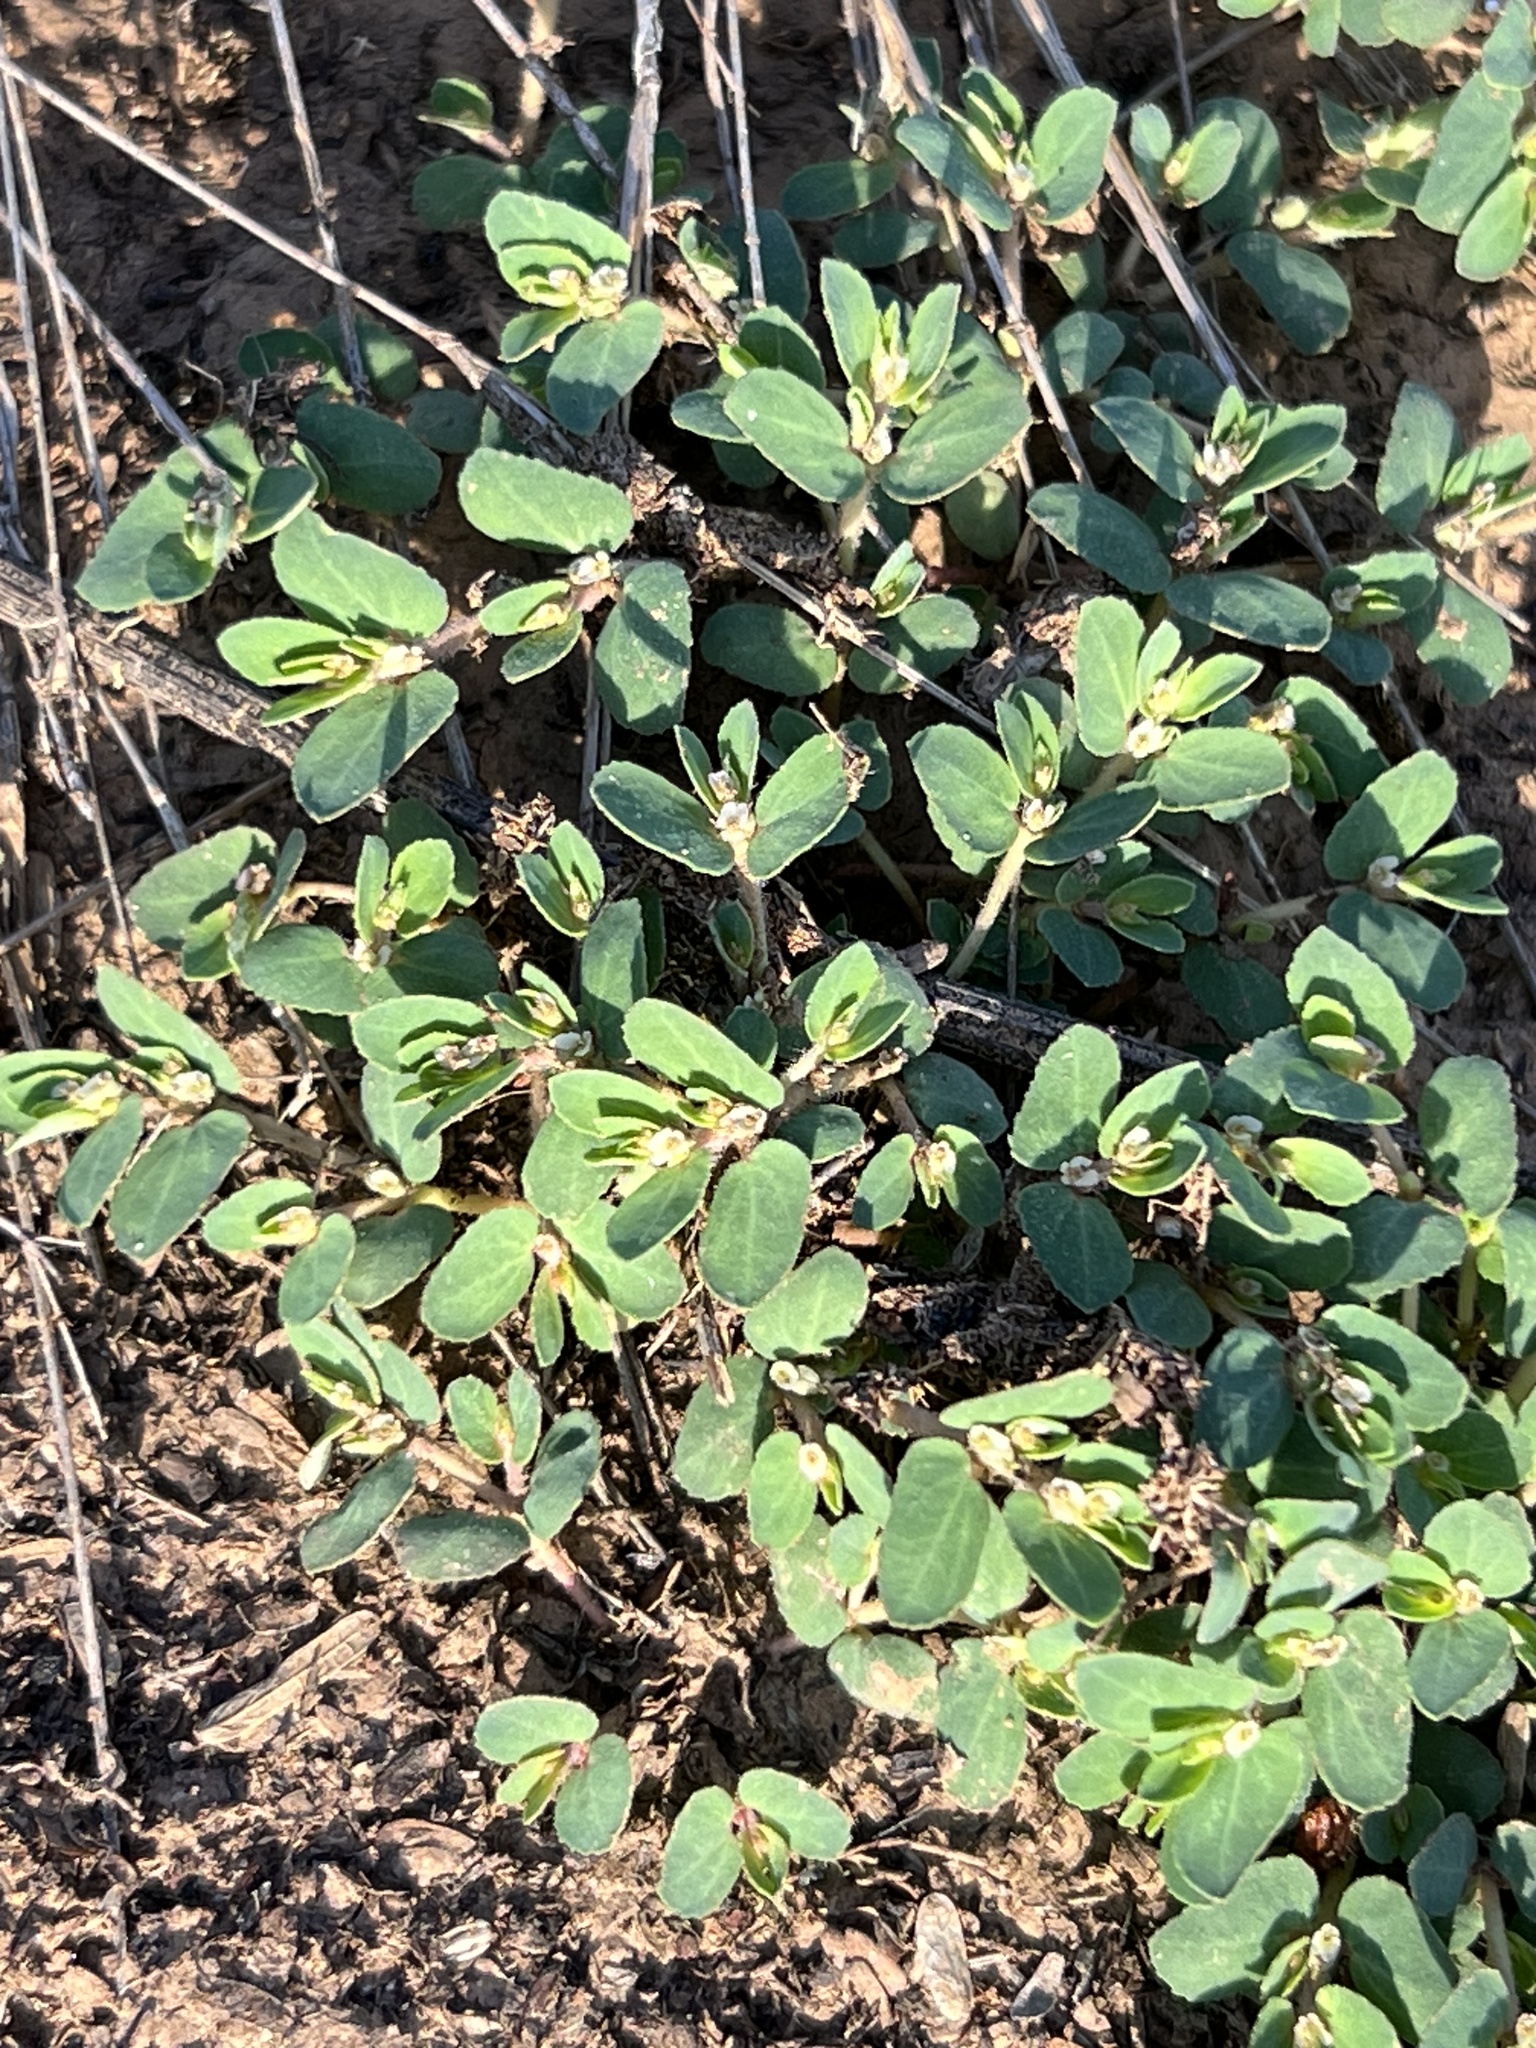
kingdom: Plantae
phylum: Tracheophyta
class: Magnoliopsida
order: Malpighiales
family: Euphorbiaceae
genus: Euphorbia
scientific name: Euphorbia indivisa
